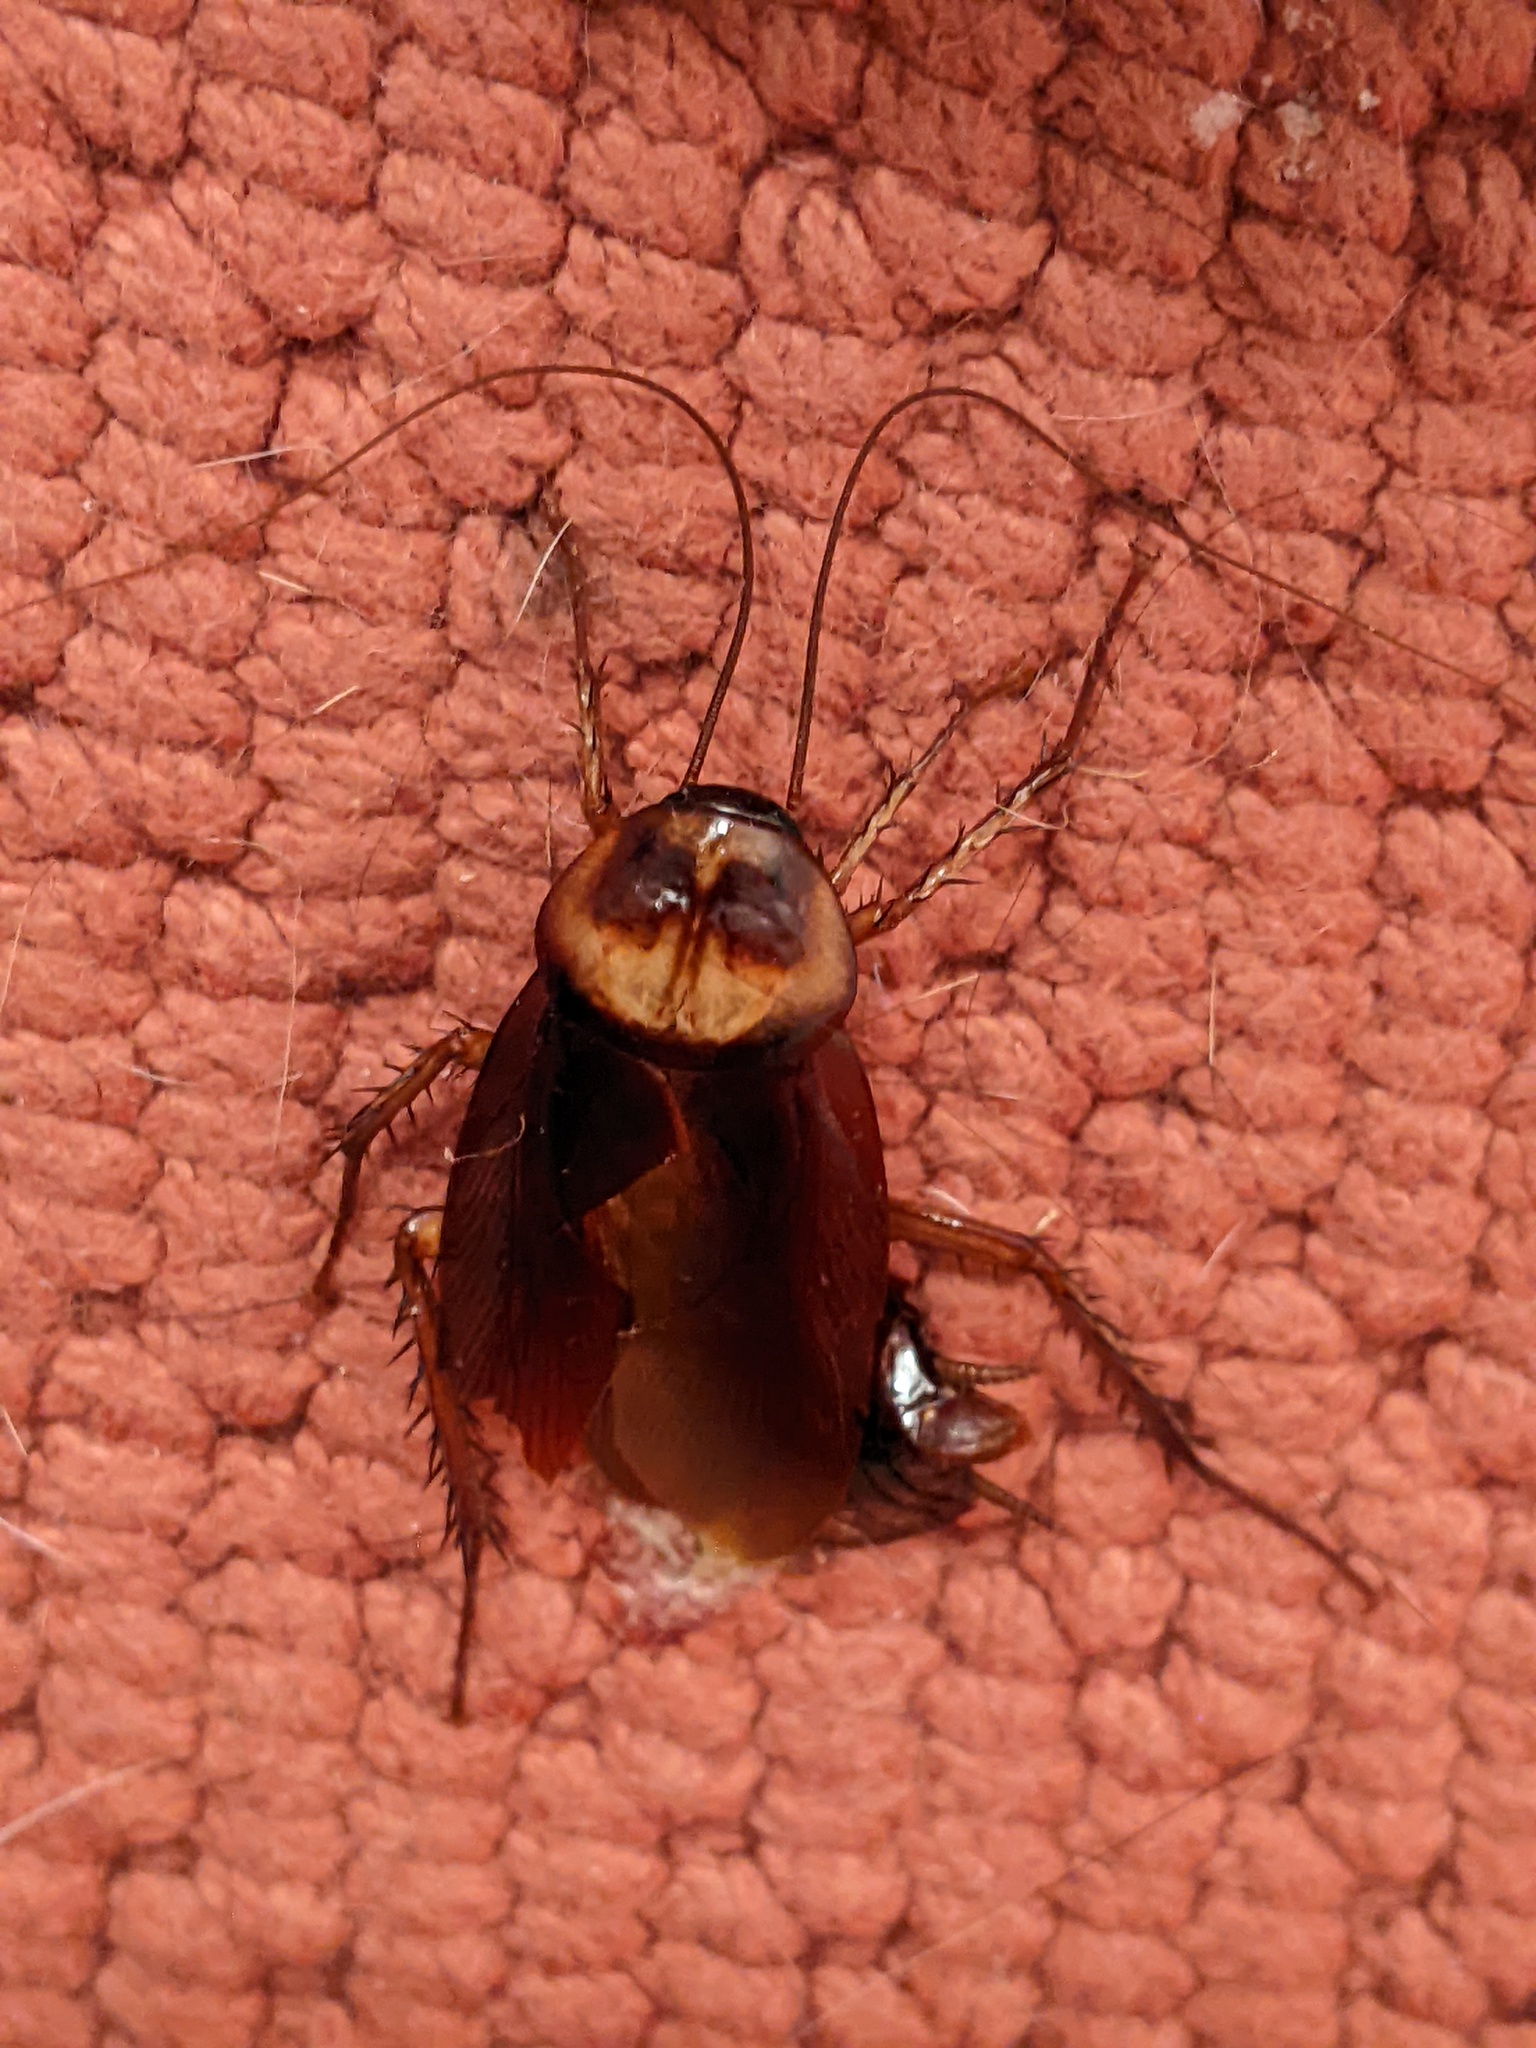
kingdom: Animalia
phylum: Arthropoda
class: Insecta
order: Blattodea
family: Blattidae
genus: Periplaneta
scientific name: Periplaneta americana
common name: American cockroach
